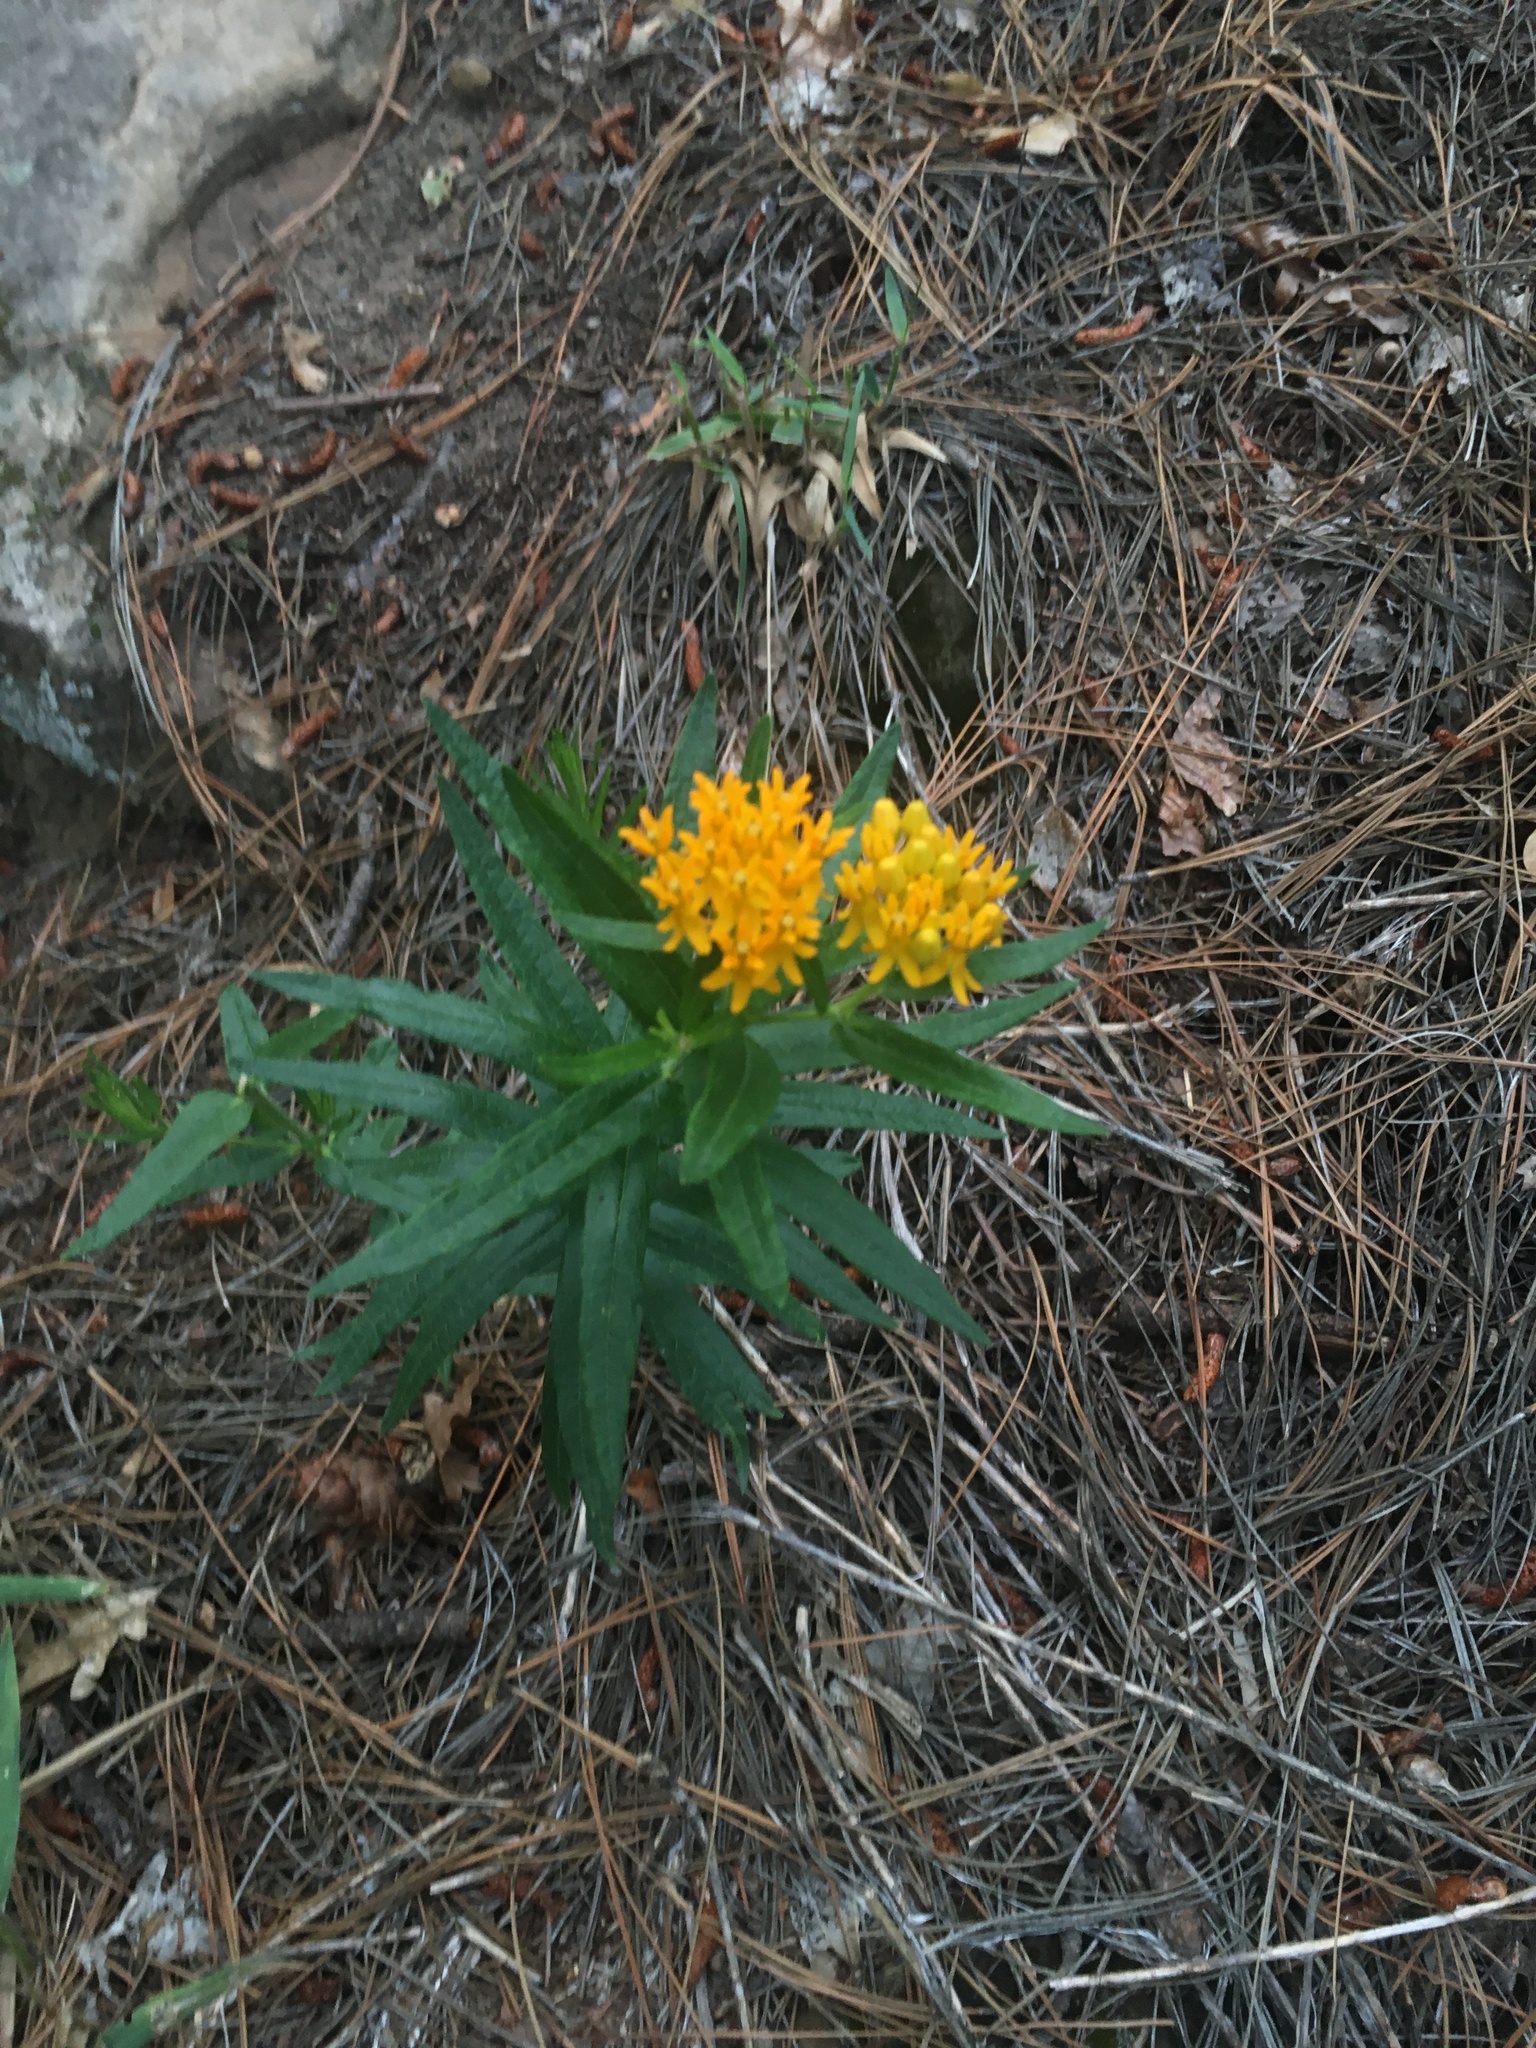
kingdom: Plantae
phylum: Tracheophyta
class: Magnoliopsida
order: Gentianales
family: Apocynaceae
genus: Asclepias
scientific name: Asclepias tuberosa
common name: Butterfly milkweed
